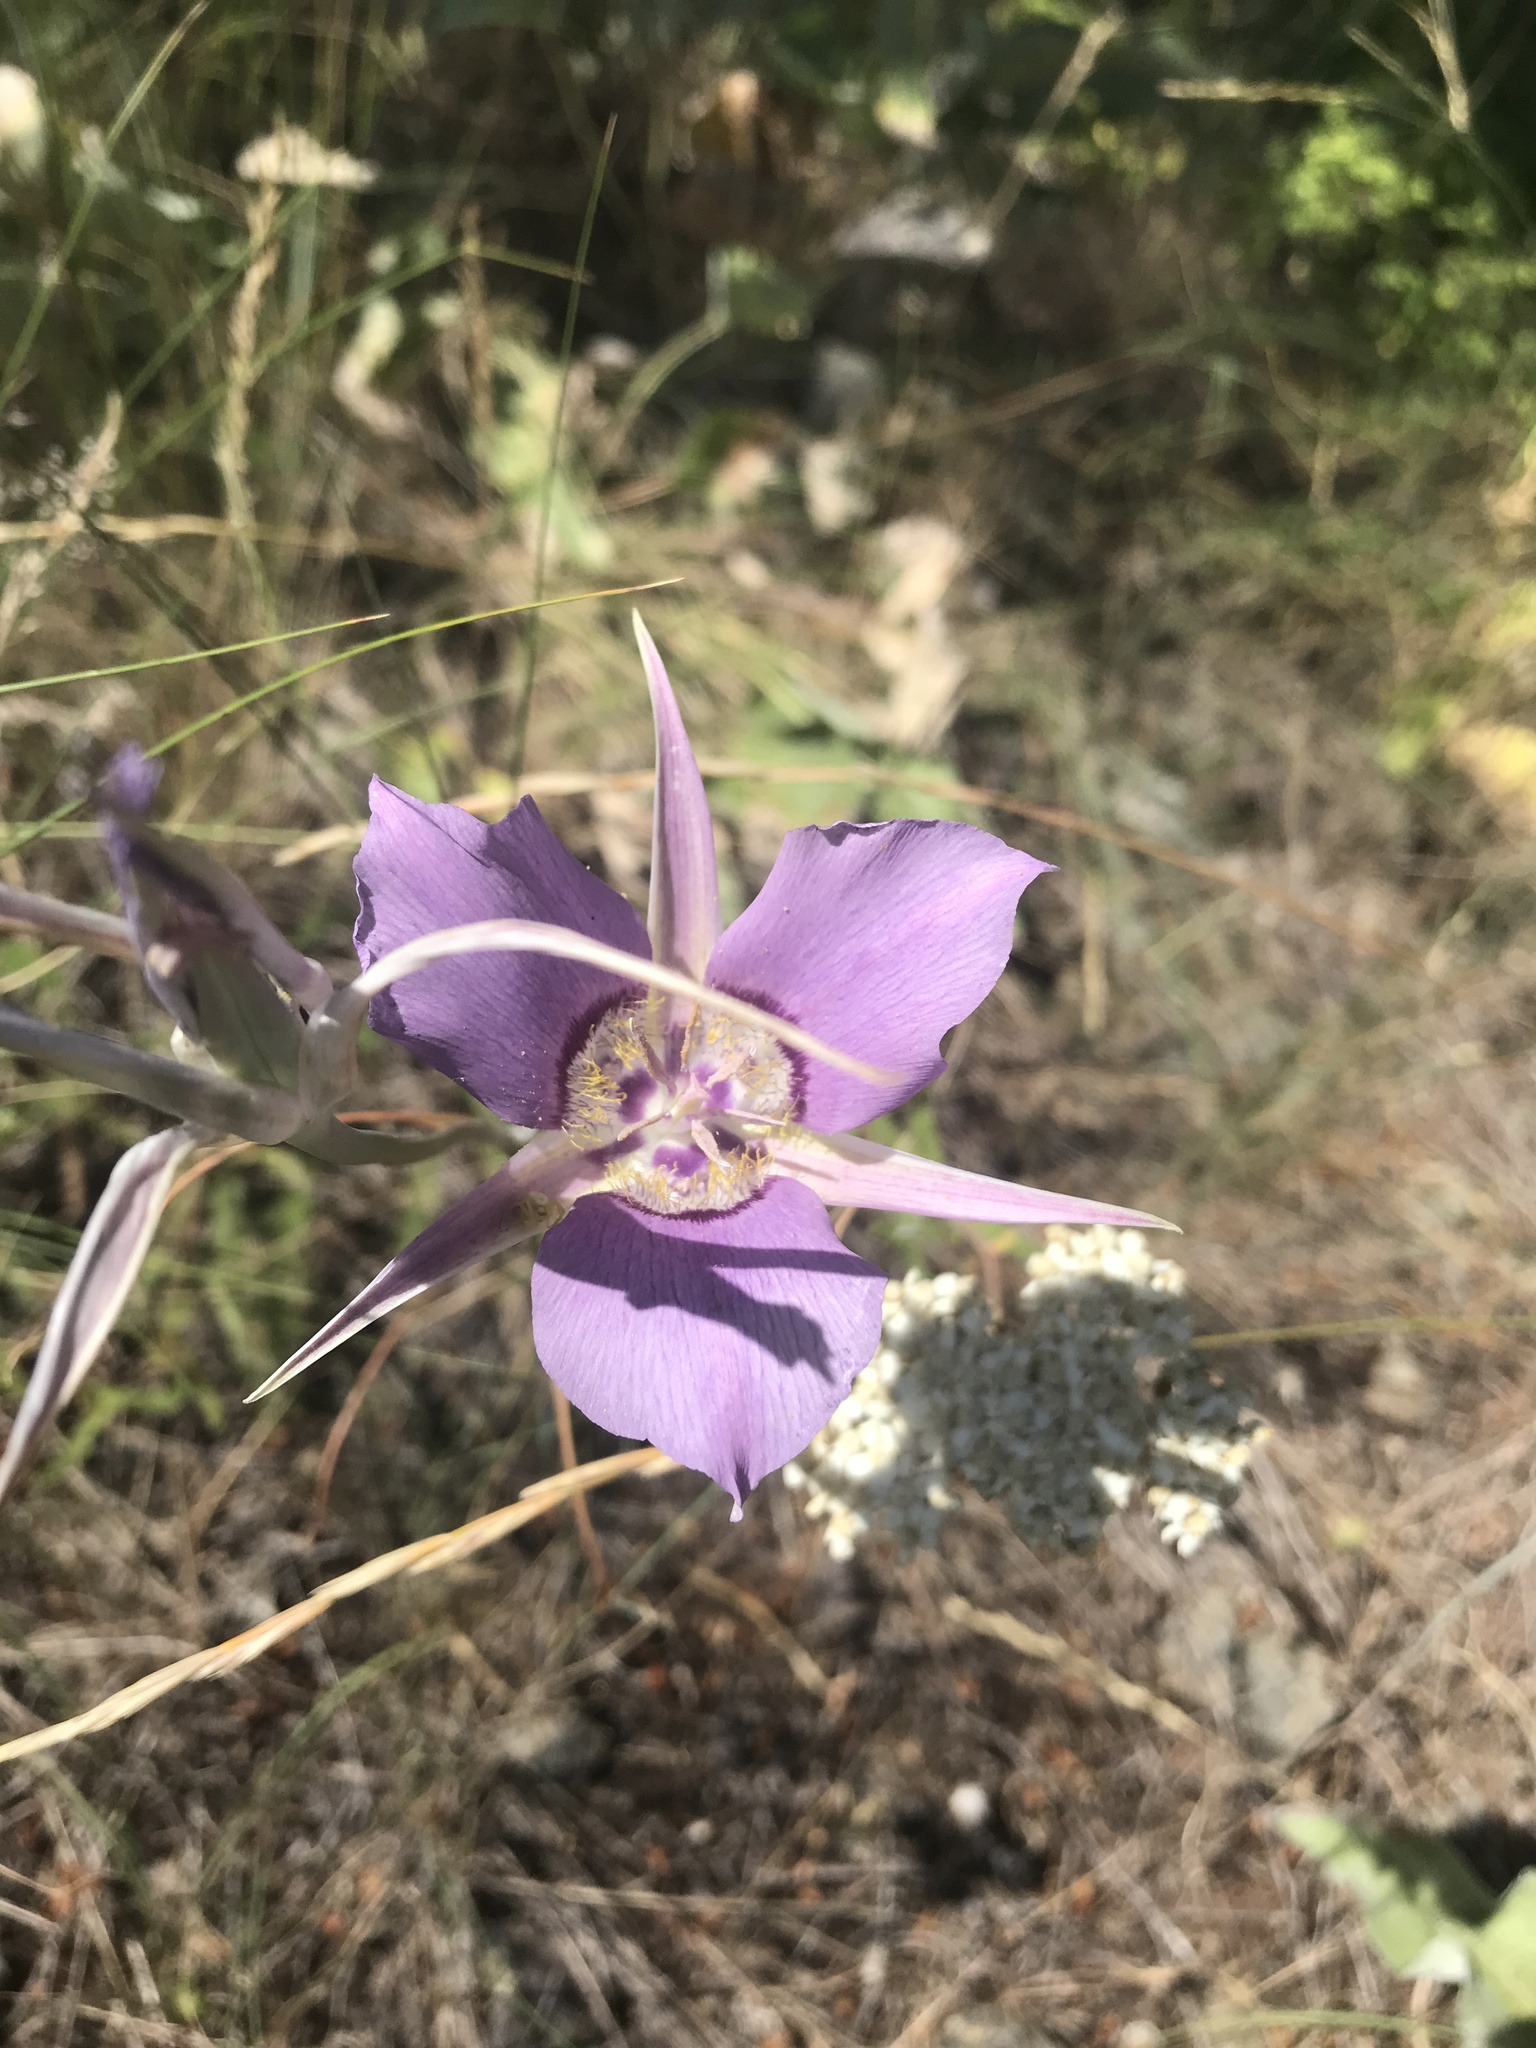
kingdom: Plantae
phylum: Tracheophyta
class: Liliopsida
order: Liliales
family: Liliaceae
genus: Calochortus
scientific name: Calochortus macrocarpus
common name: Green-band mariposa lily
